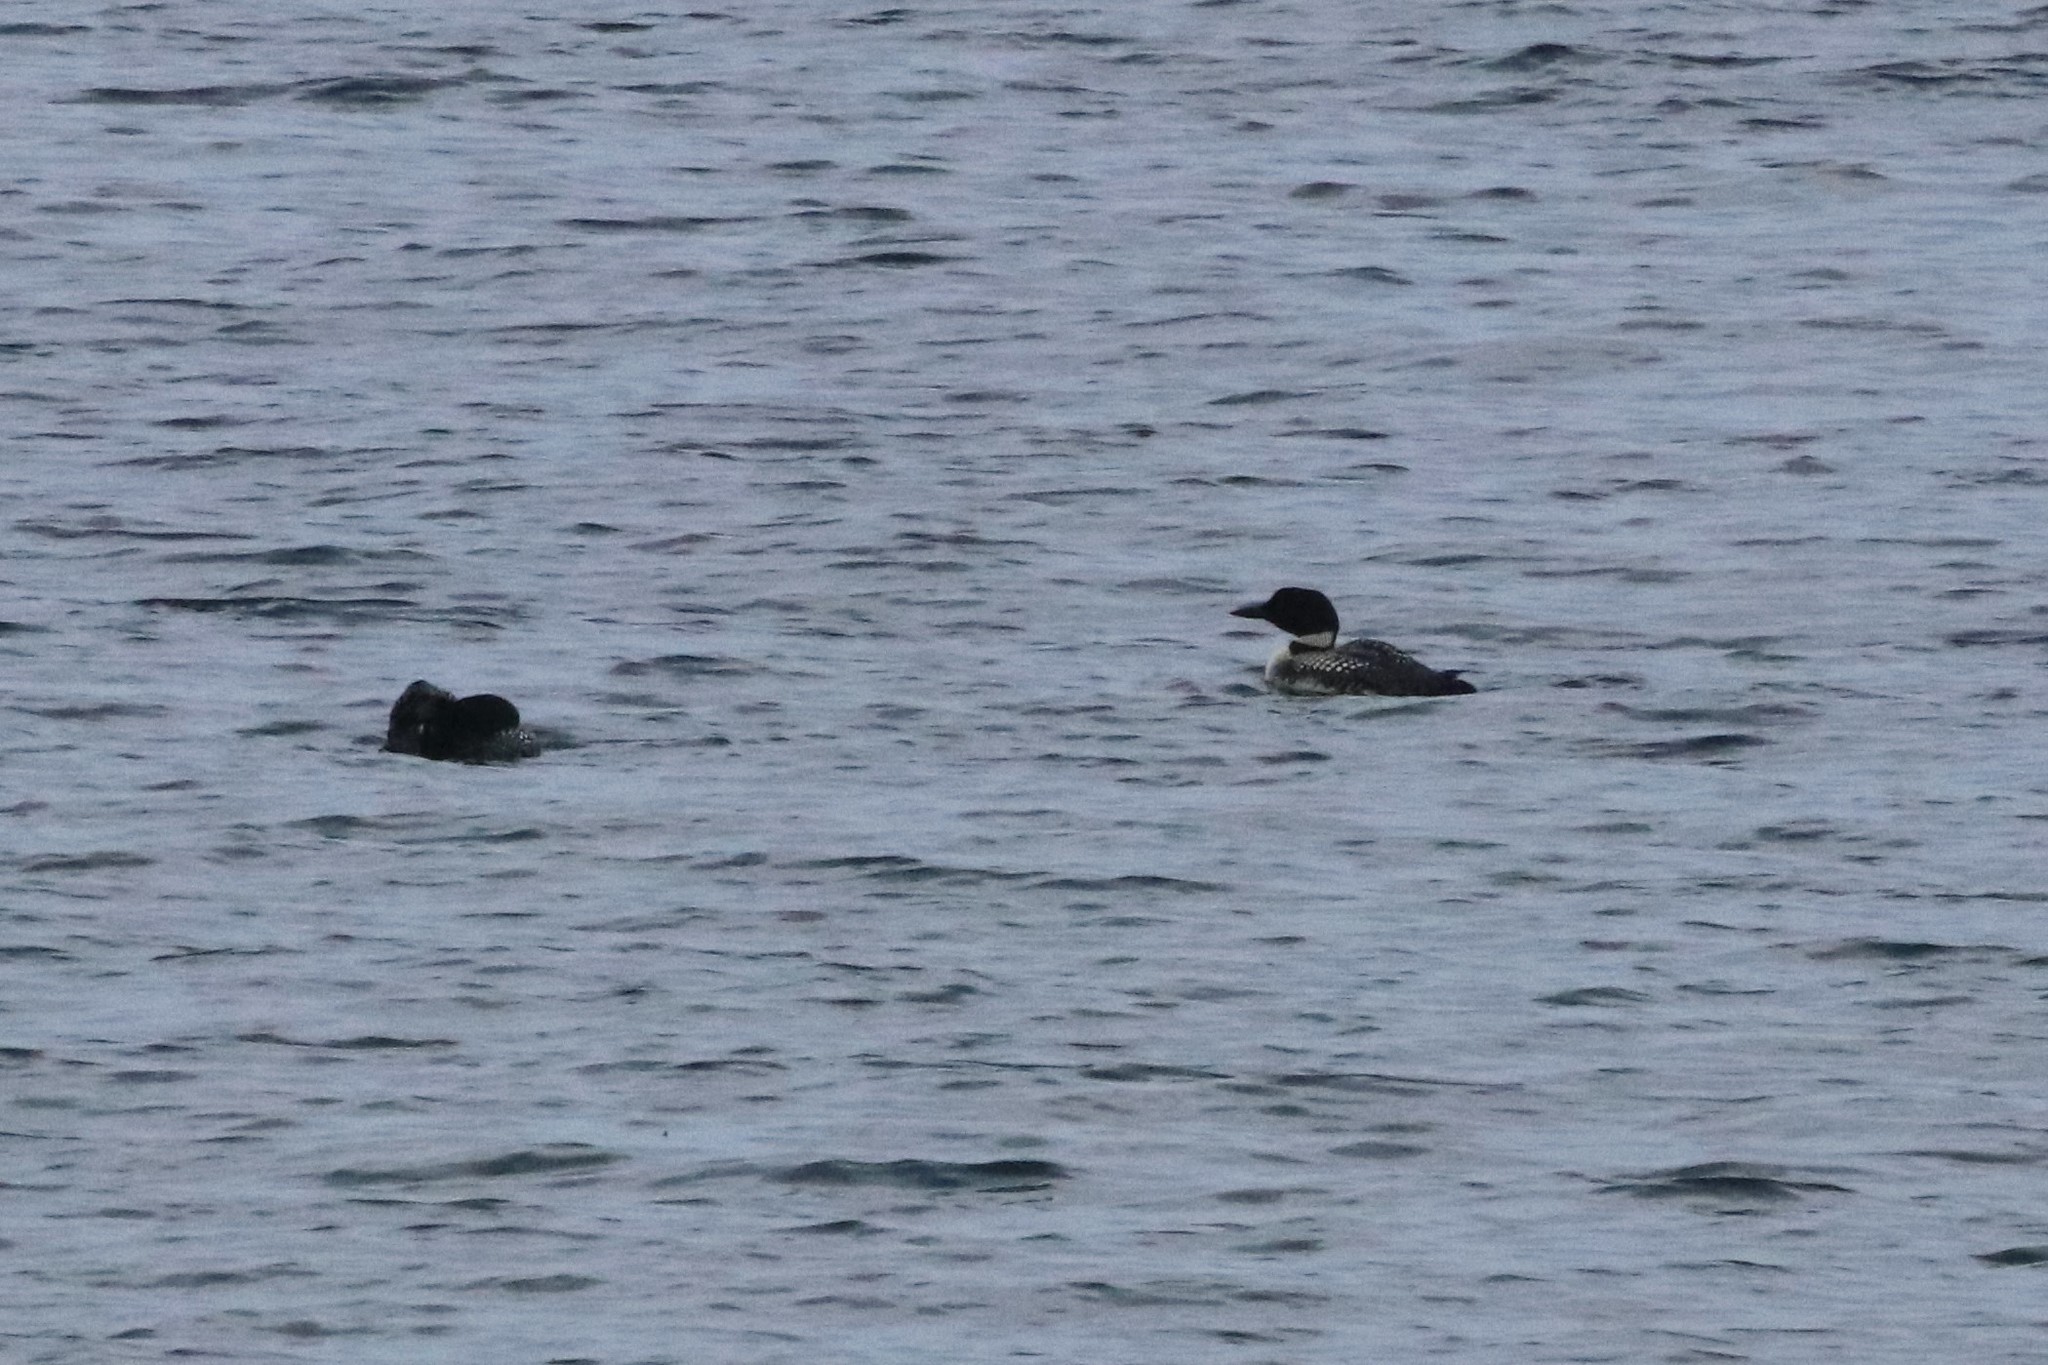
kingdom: Animalia
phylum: Chordata
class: Aves
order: Gaviiformes
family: Gaviidae
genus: Gavia
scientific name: Gavia immer
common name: Common loon
